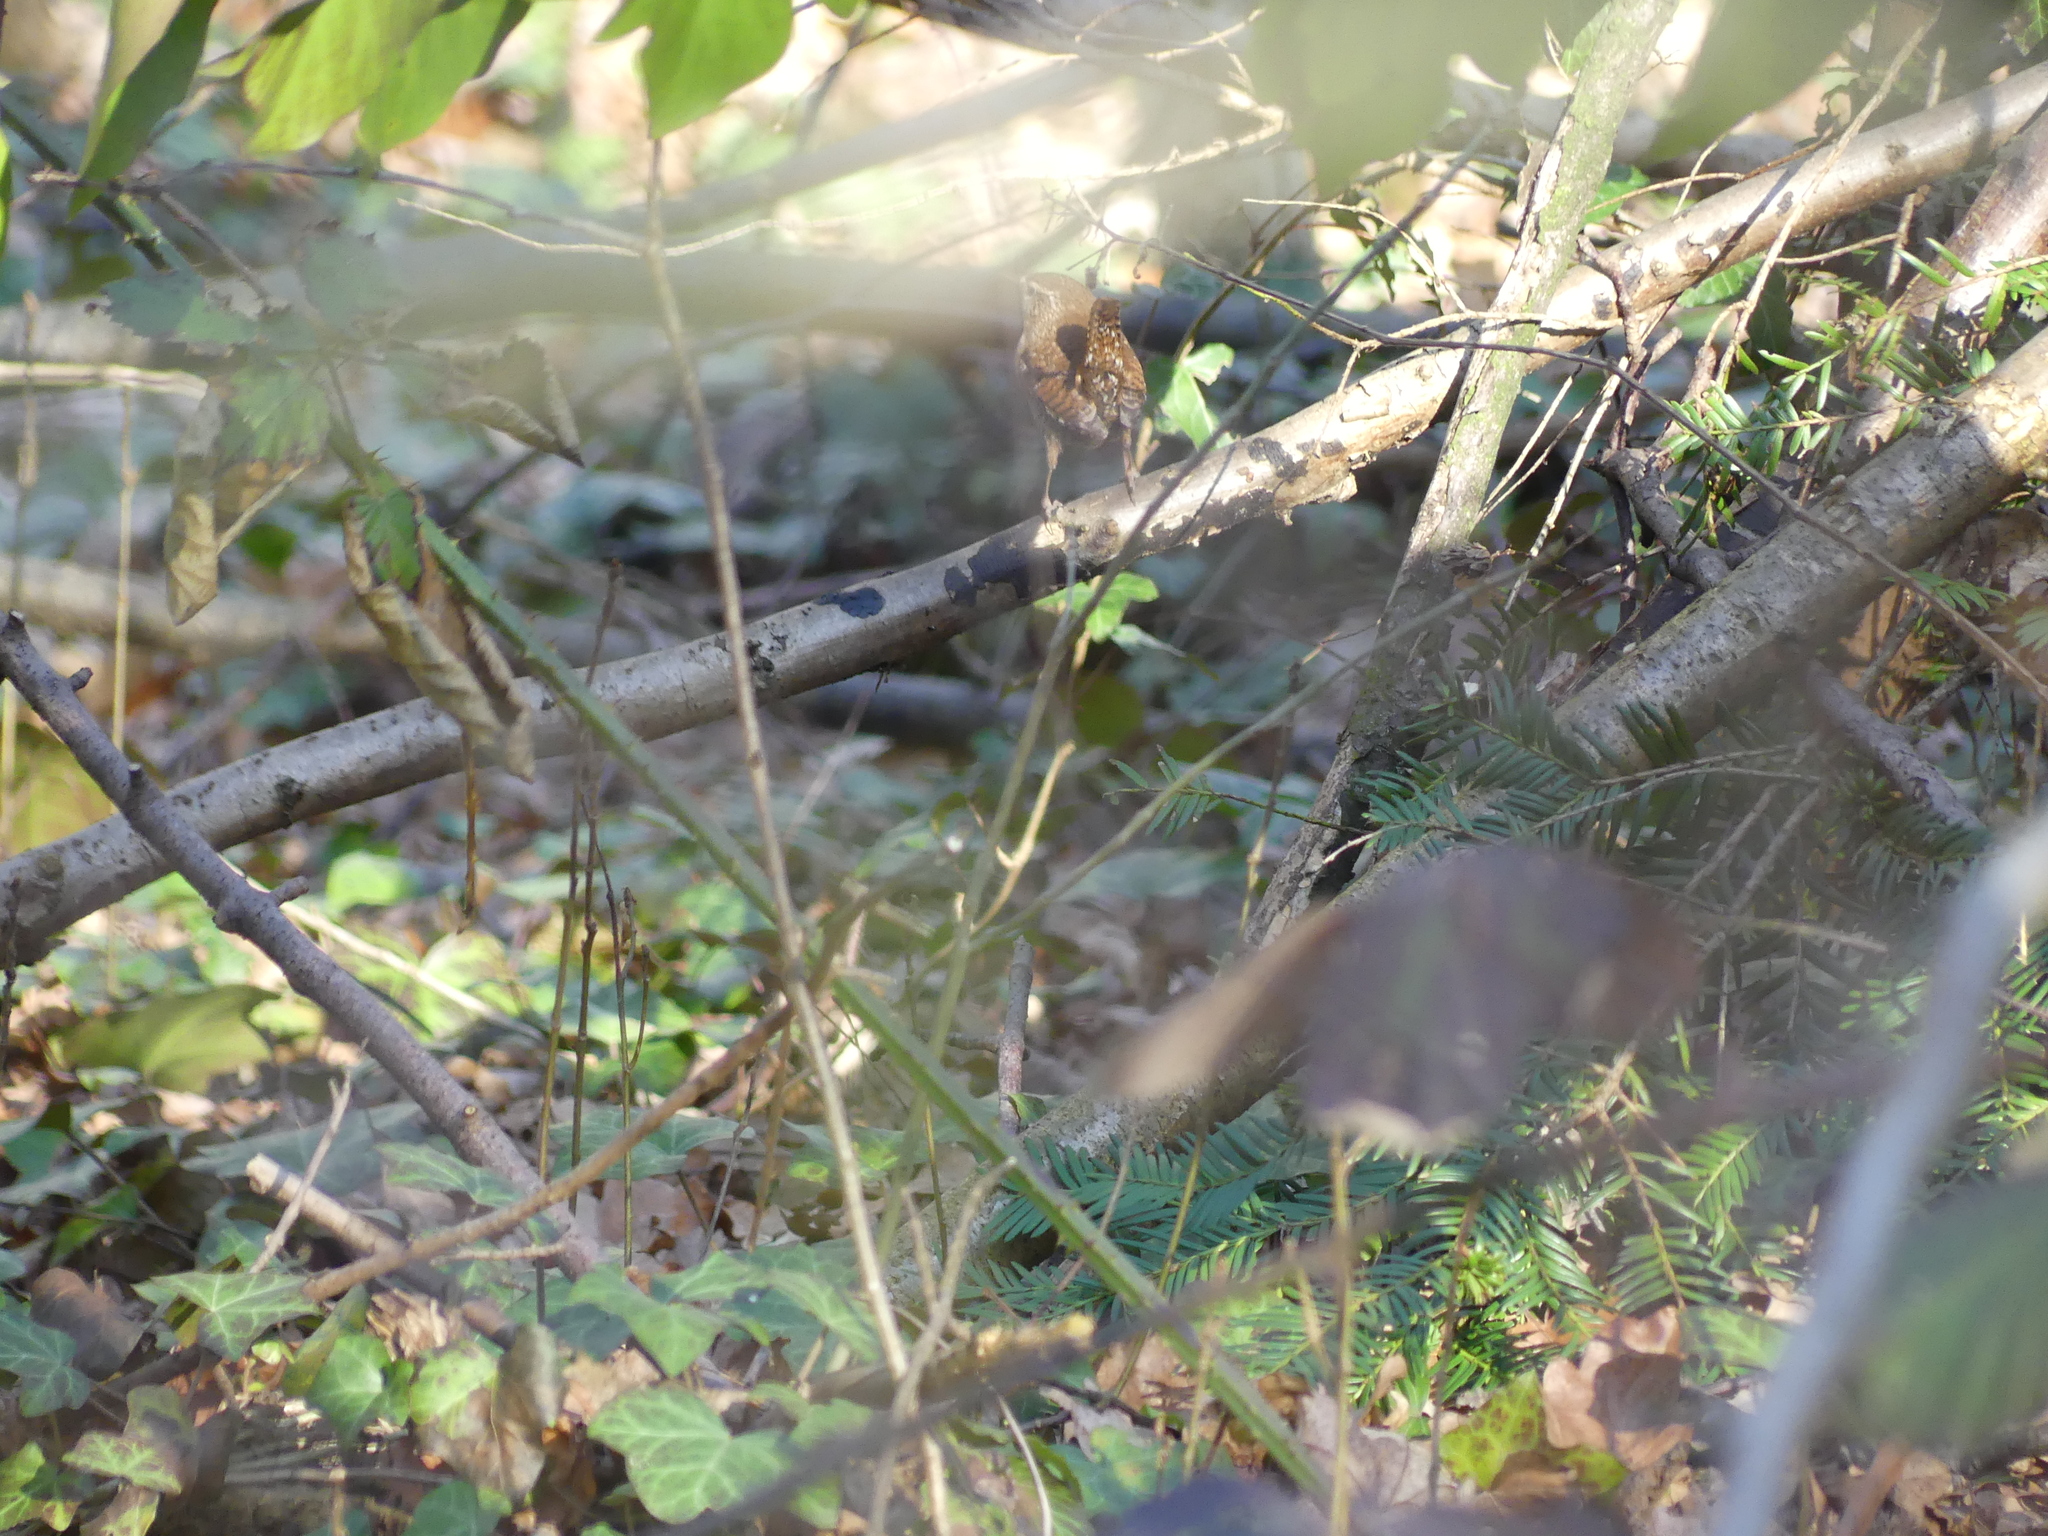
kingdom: Animalia
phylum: Chordata
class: Aves
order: Passeriformes
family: Troglodytidae
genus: Troglodytes
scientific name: Troglodytes troglodytes
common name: Eurasian wren
